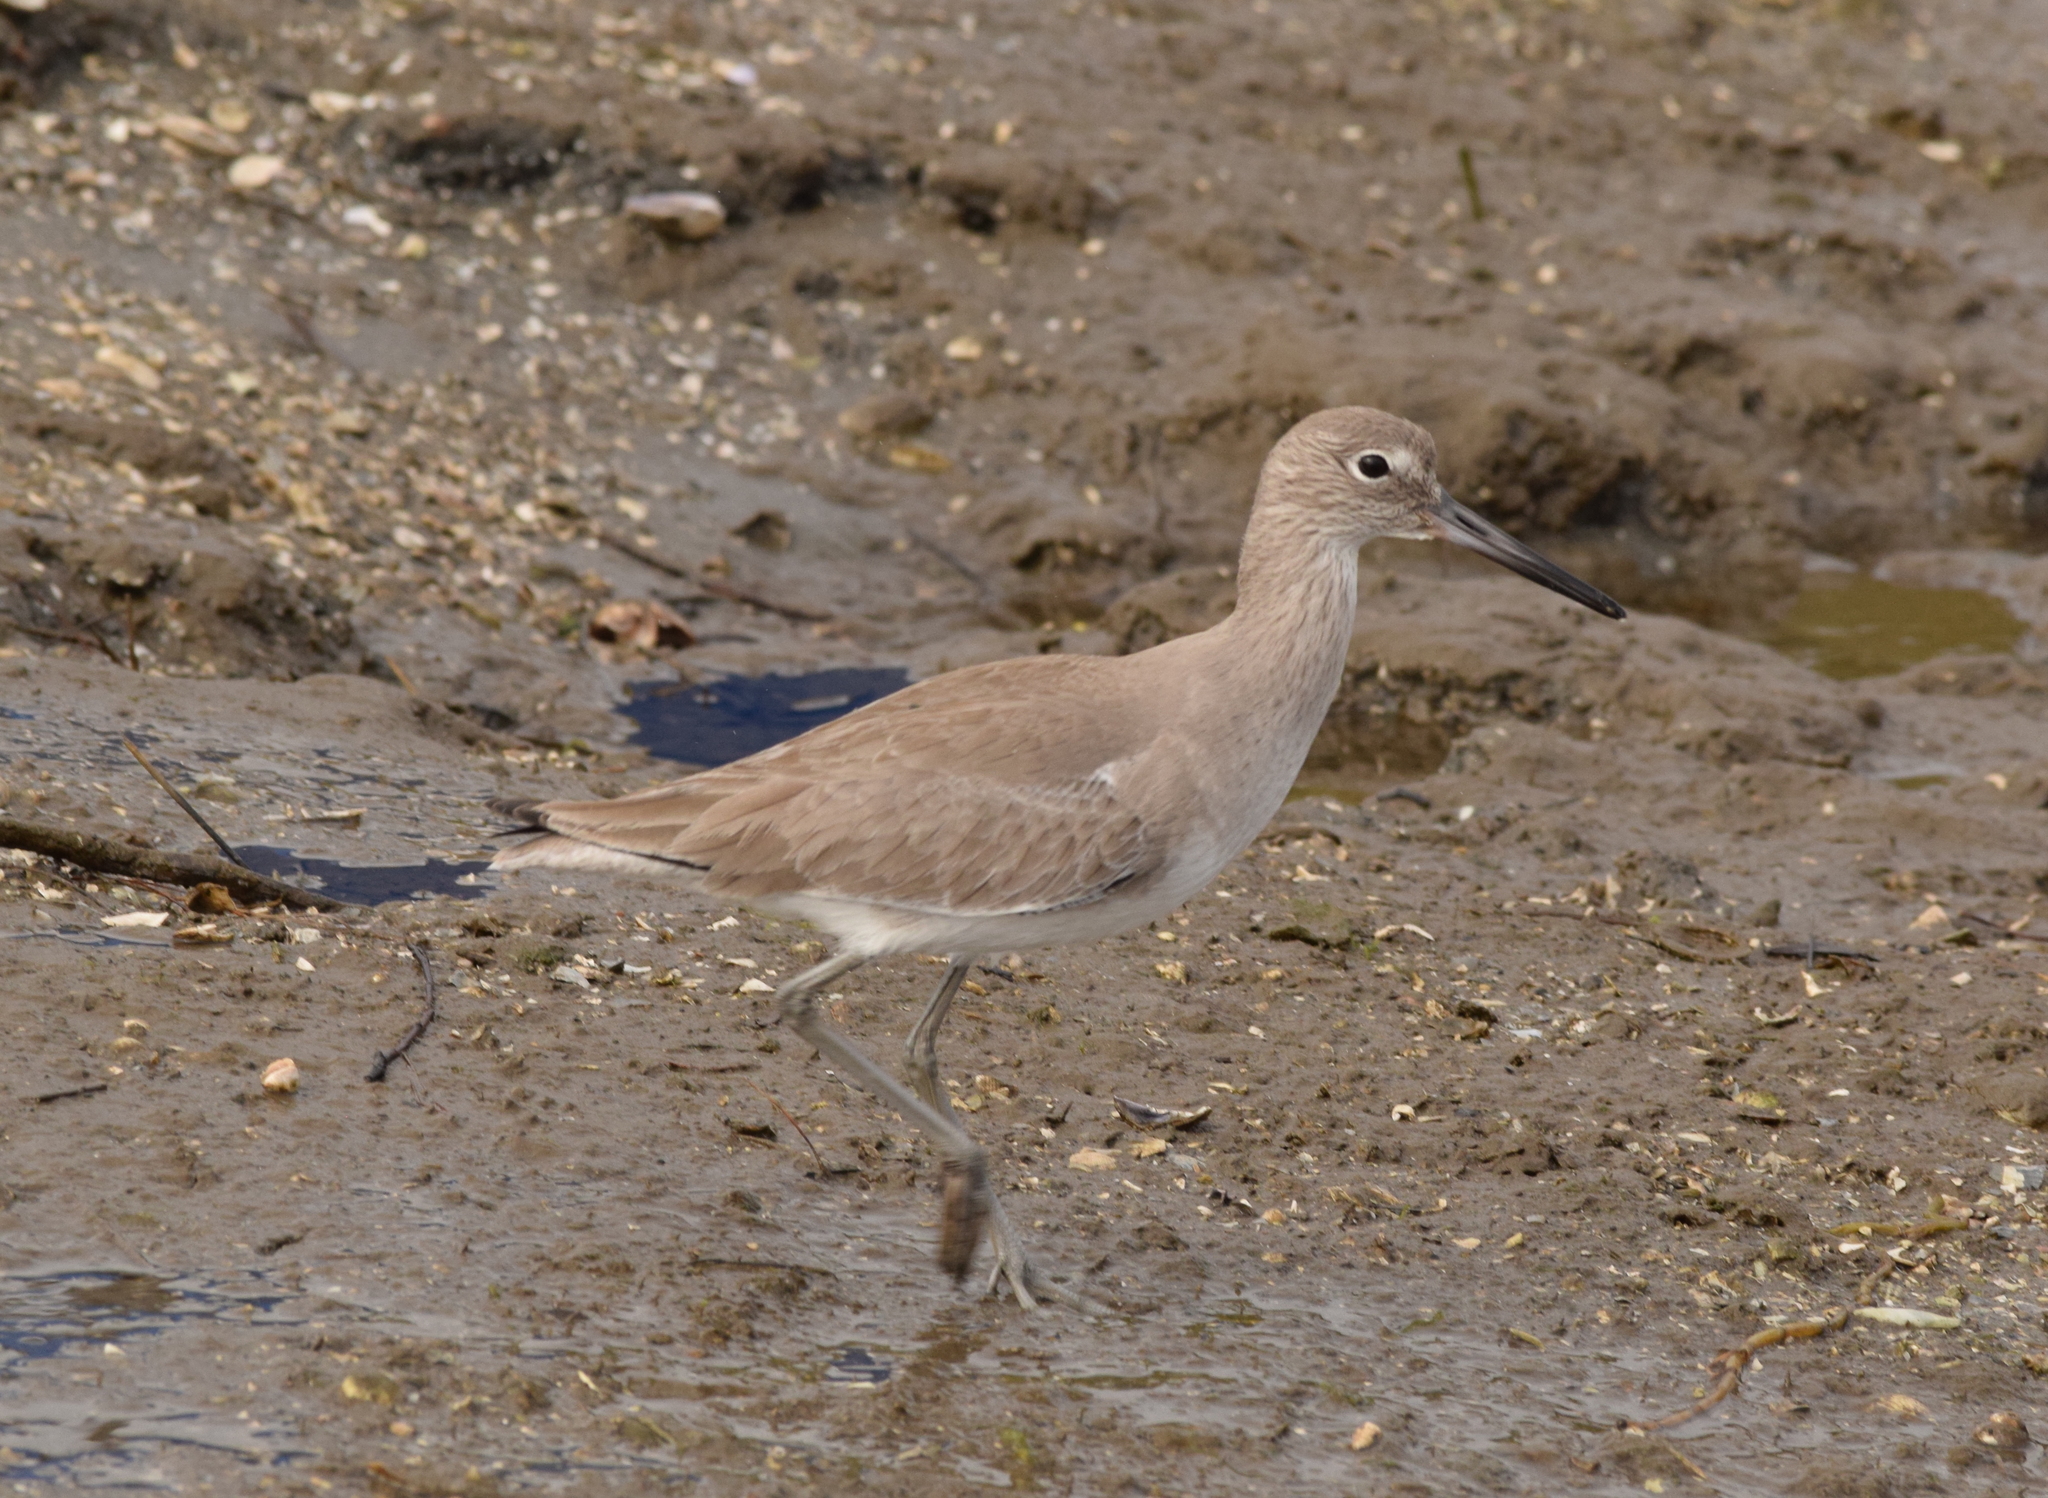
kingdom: Animalia
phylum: Chordata
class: Aves
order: Charadriiformes
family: Scolopacidae
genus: Tringa
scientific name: Tringa semipalmata
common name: Willet
